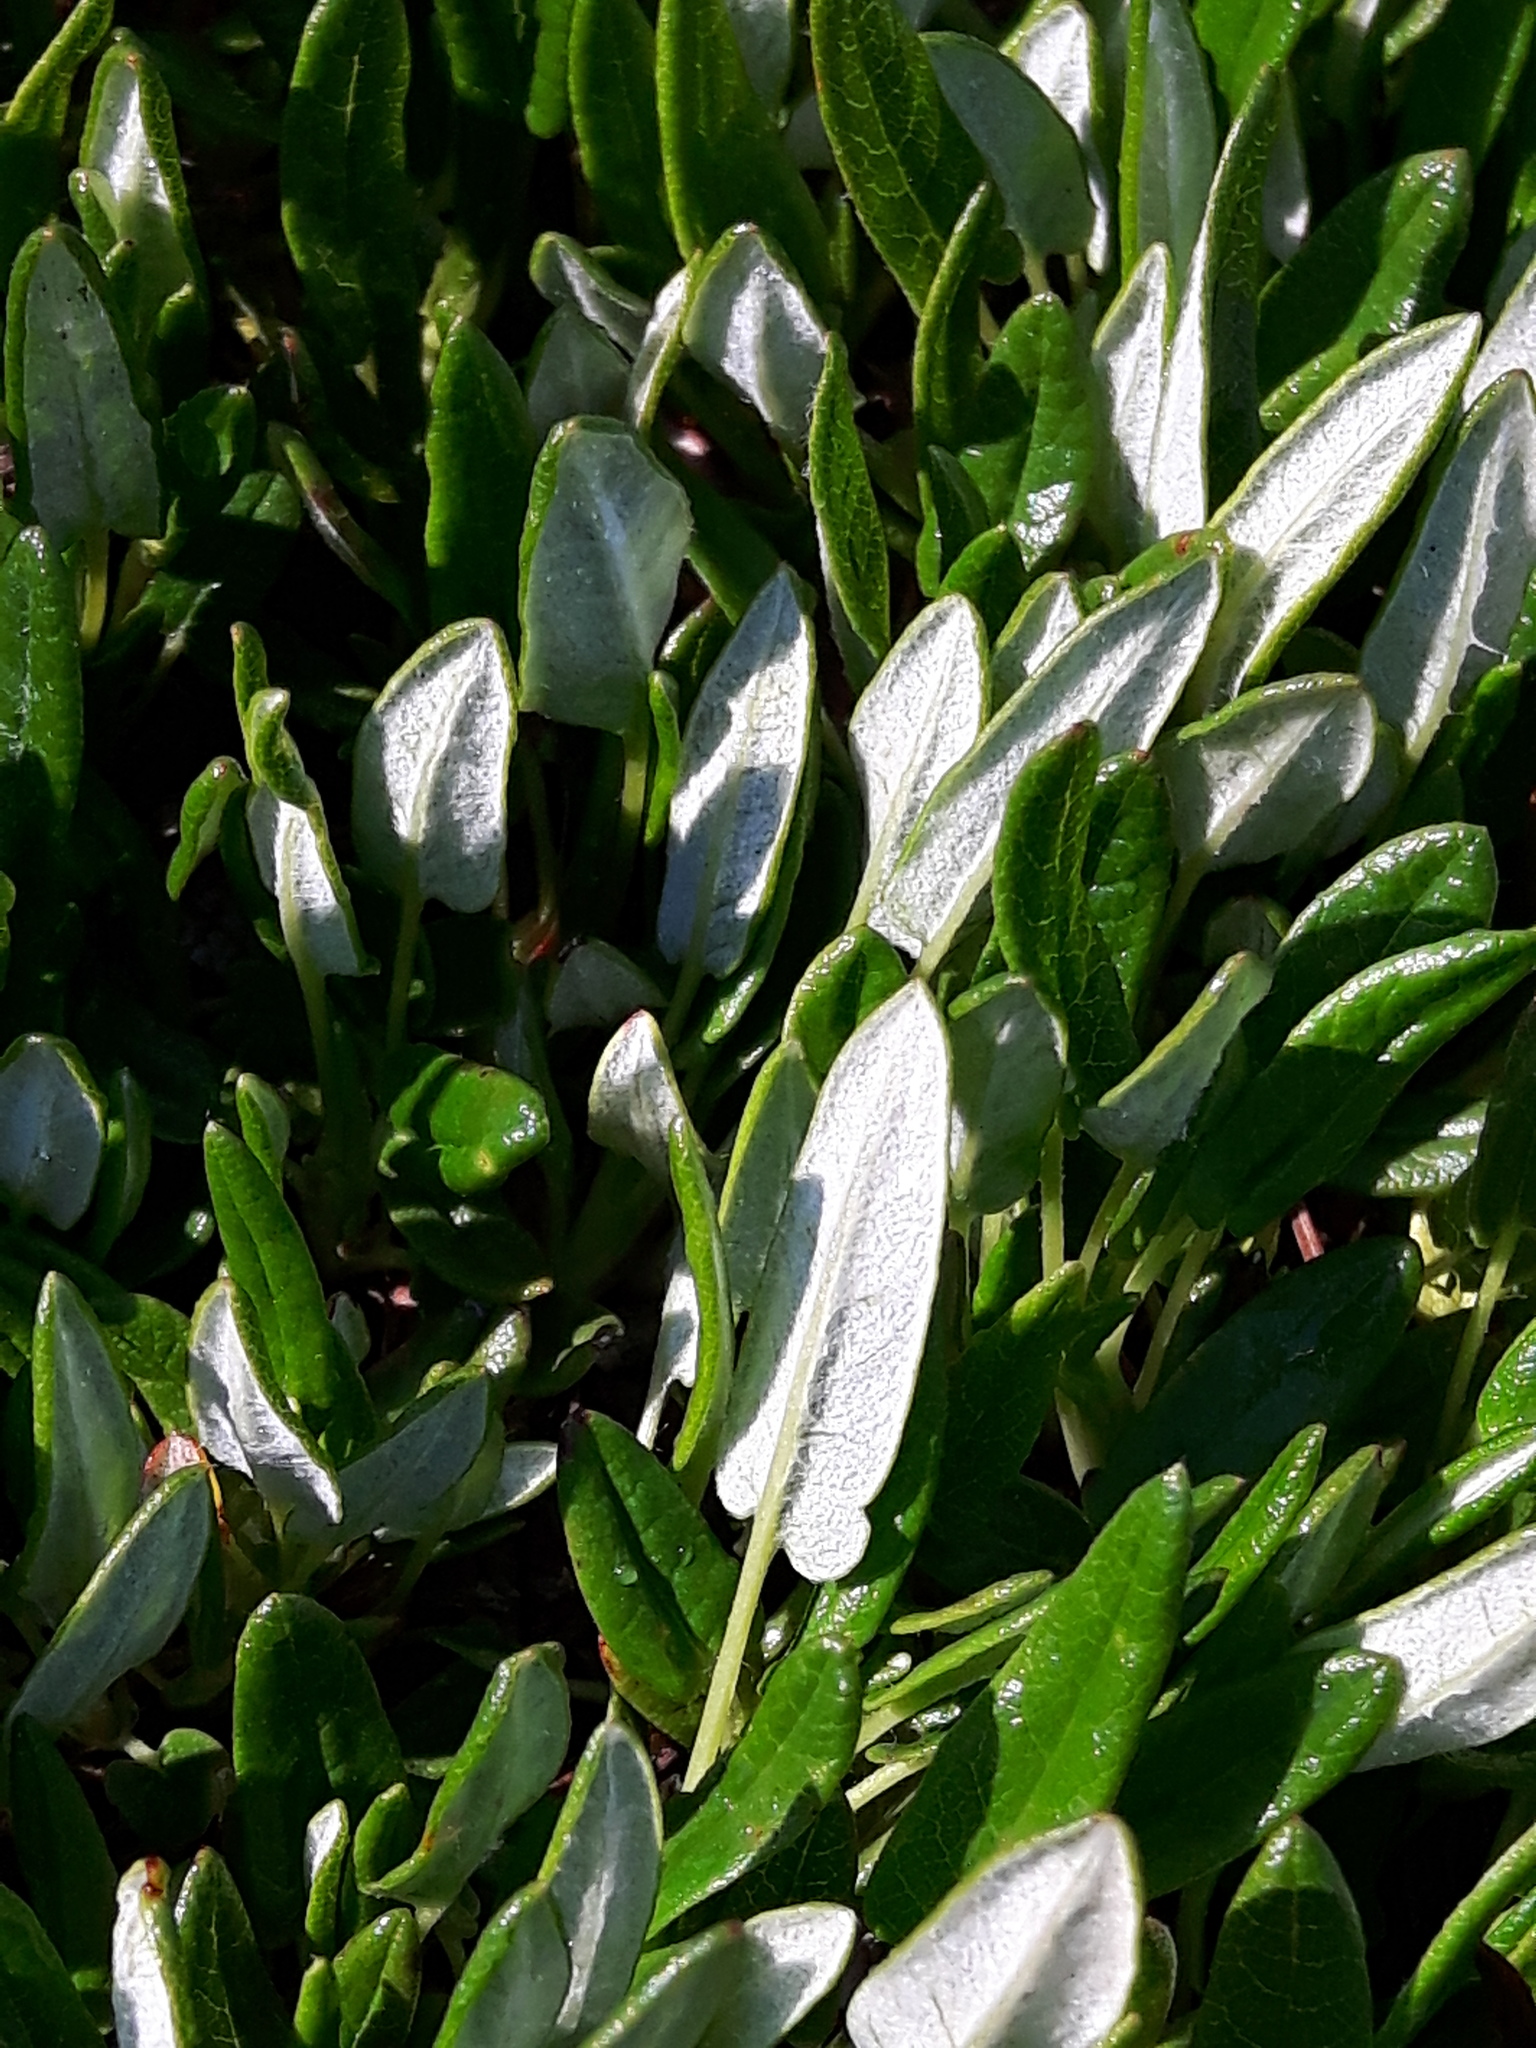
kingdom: Plantae
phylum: Tracheophyta
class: Magnoliopsida
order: Rosales
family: Rosaceae
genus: Dryas
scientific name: Dryas integrifolia
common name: Entire-leaved mountain avens
